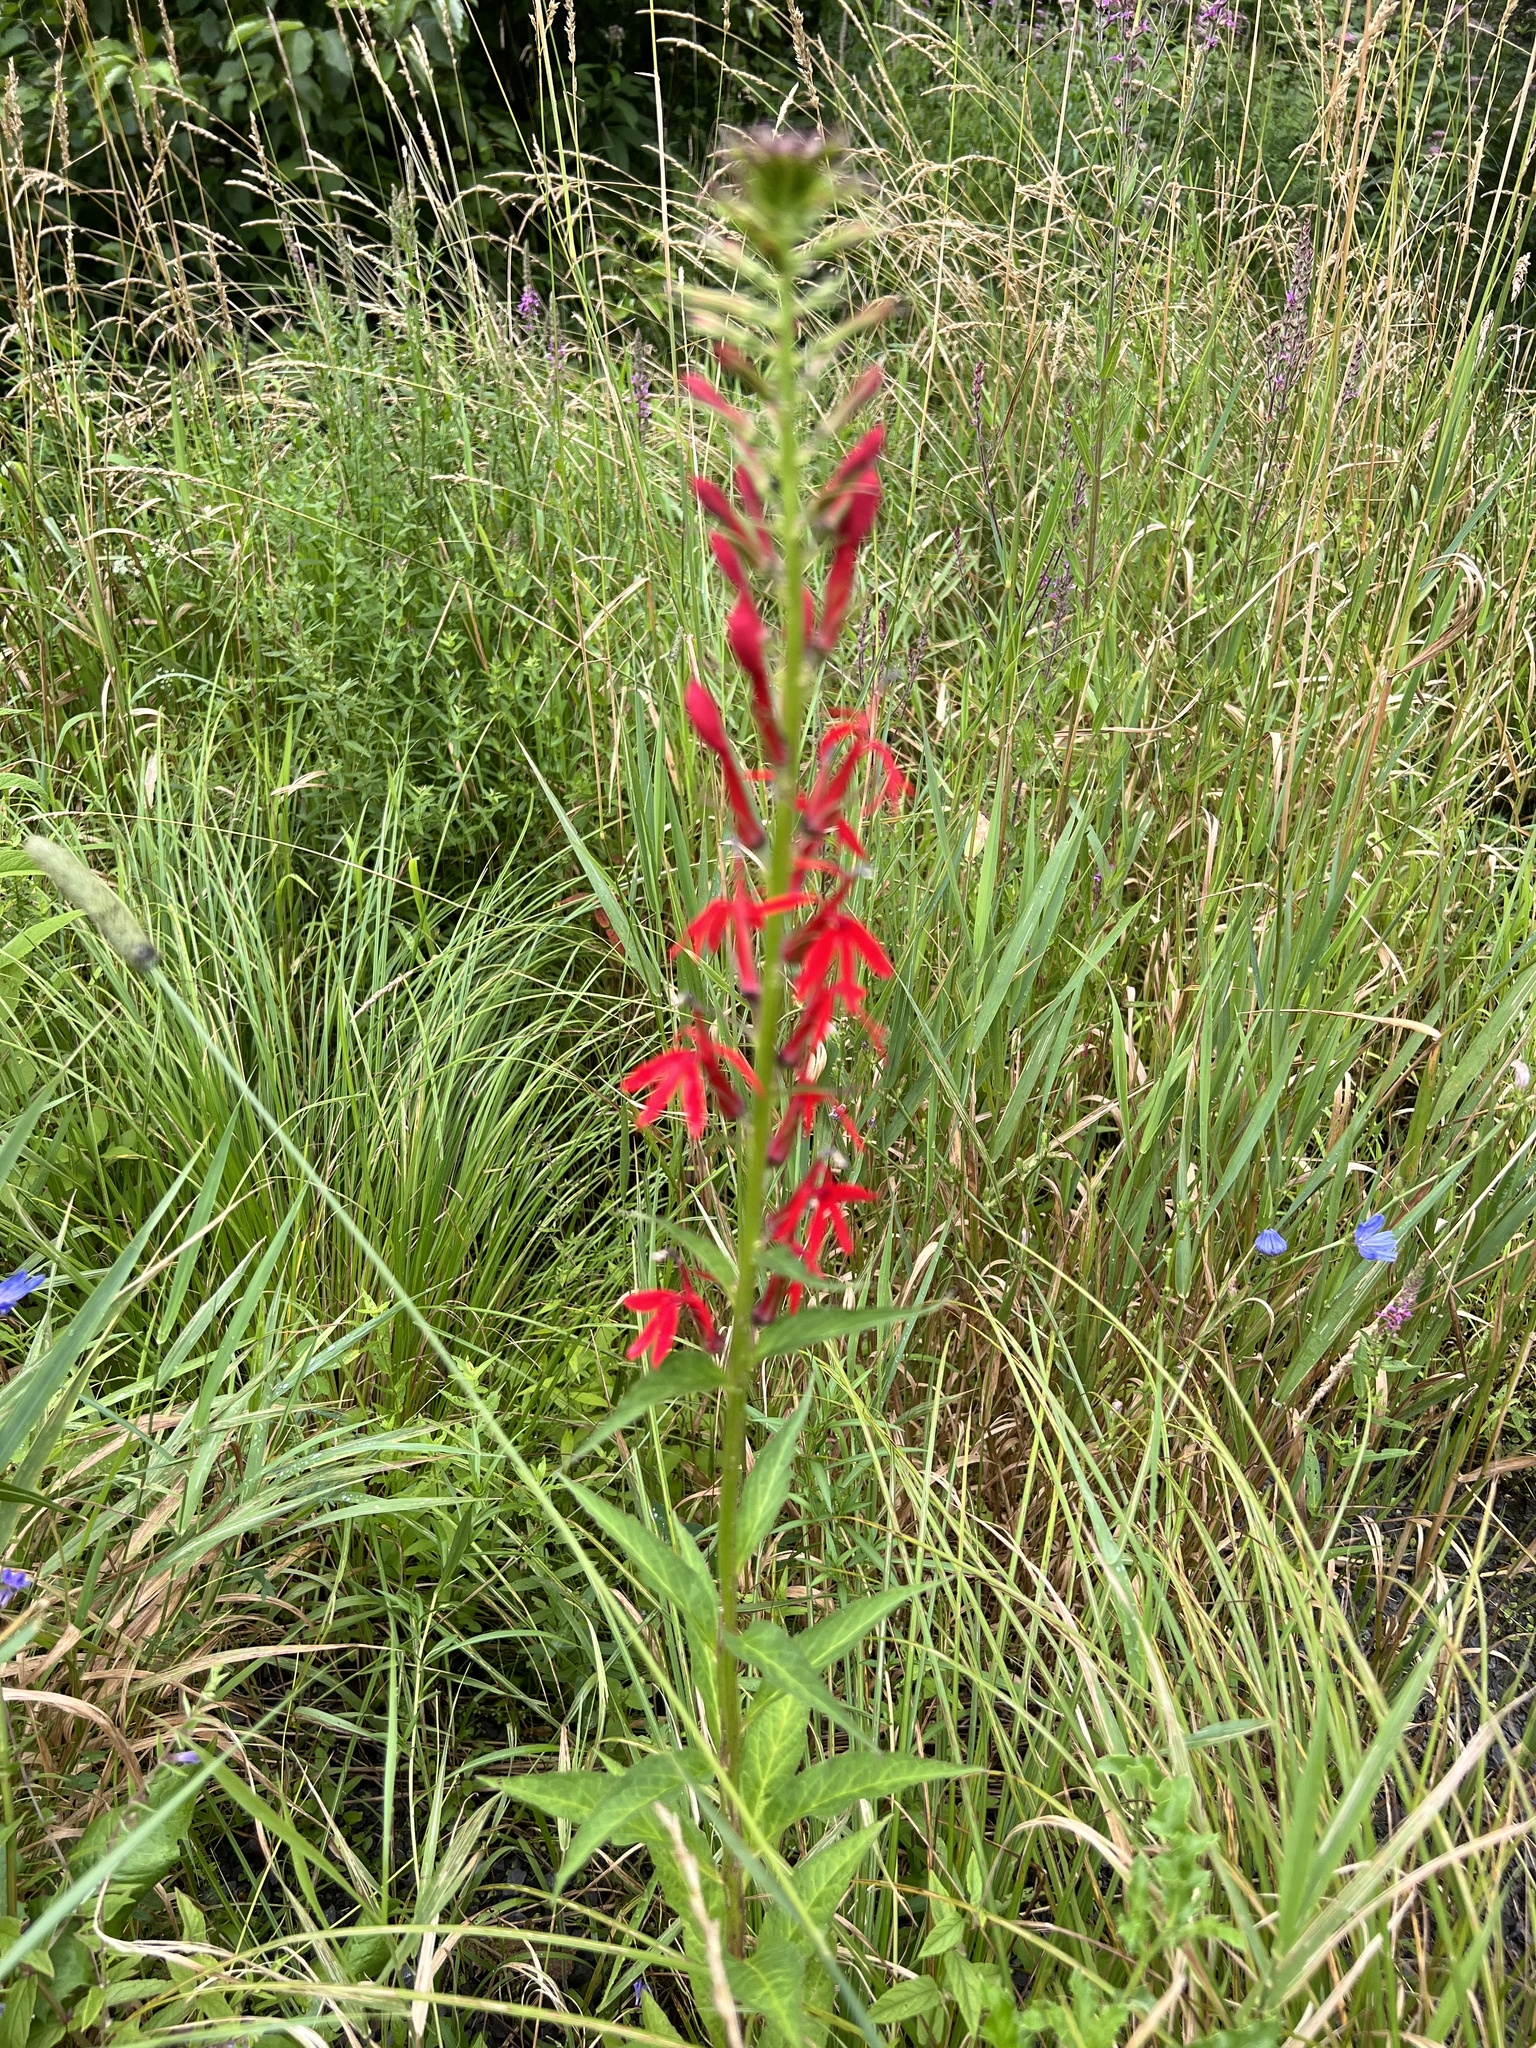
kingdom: Plantae
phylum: Tracheophyta
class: Magnoliopsida
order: Asterales
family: Campanulaceae
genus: Lobelia
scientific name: Lobelia cardinalis
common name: Cardinal flower
